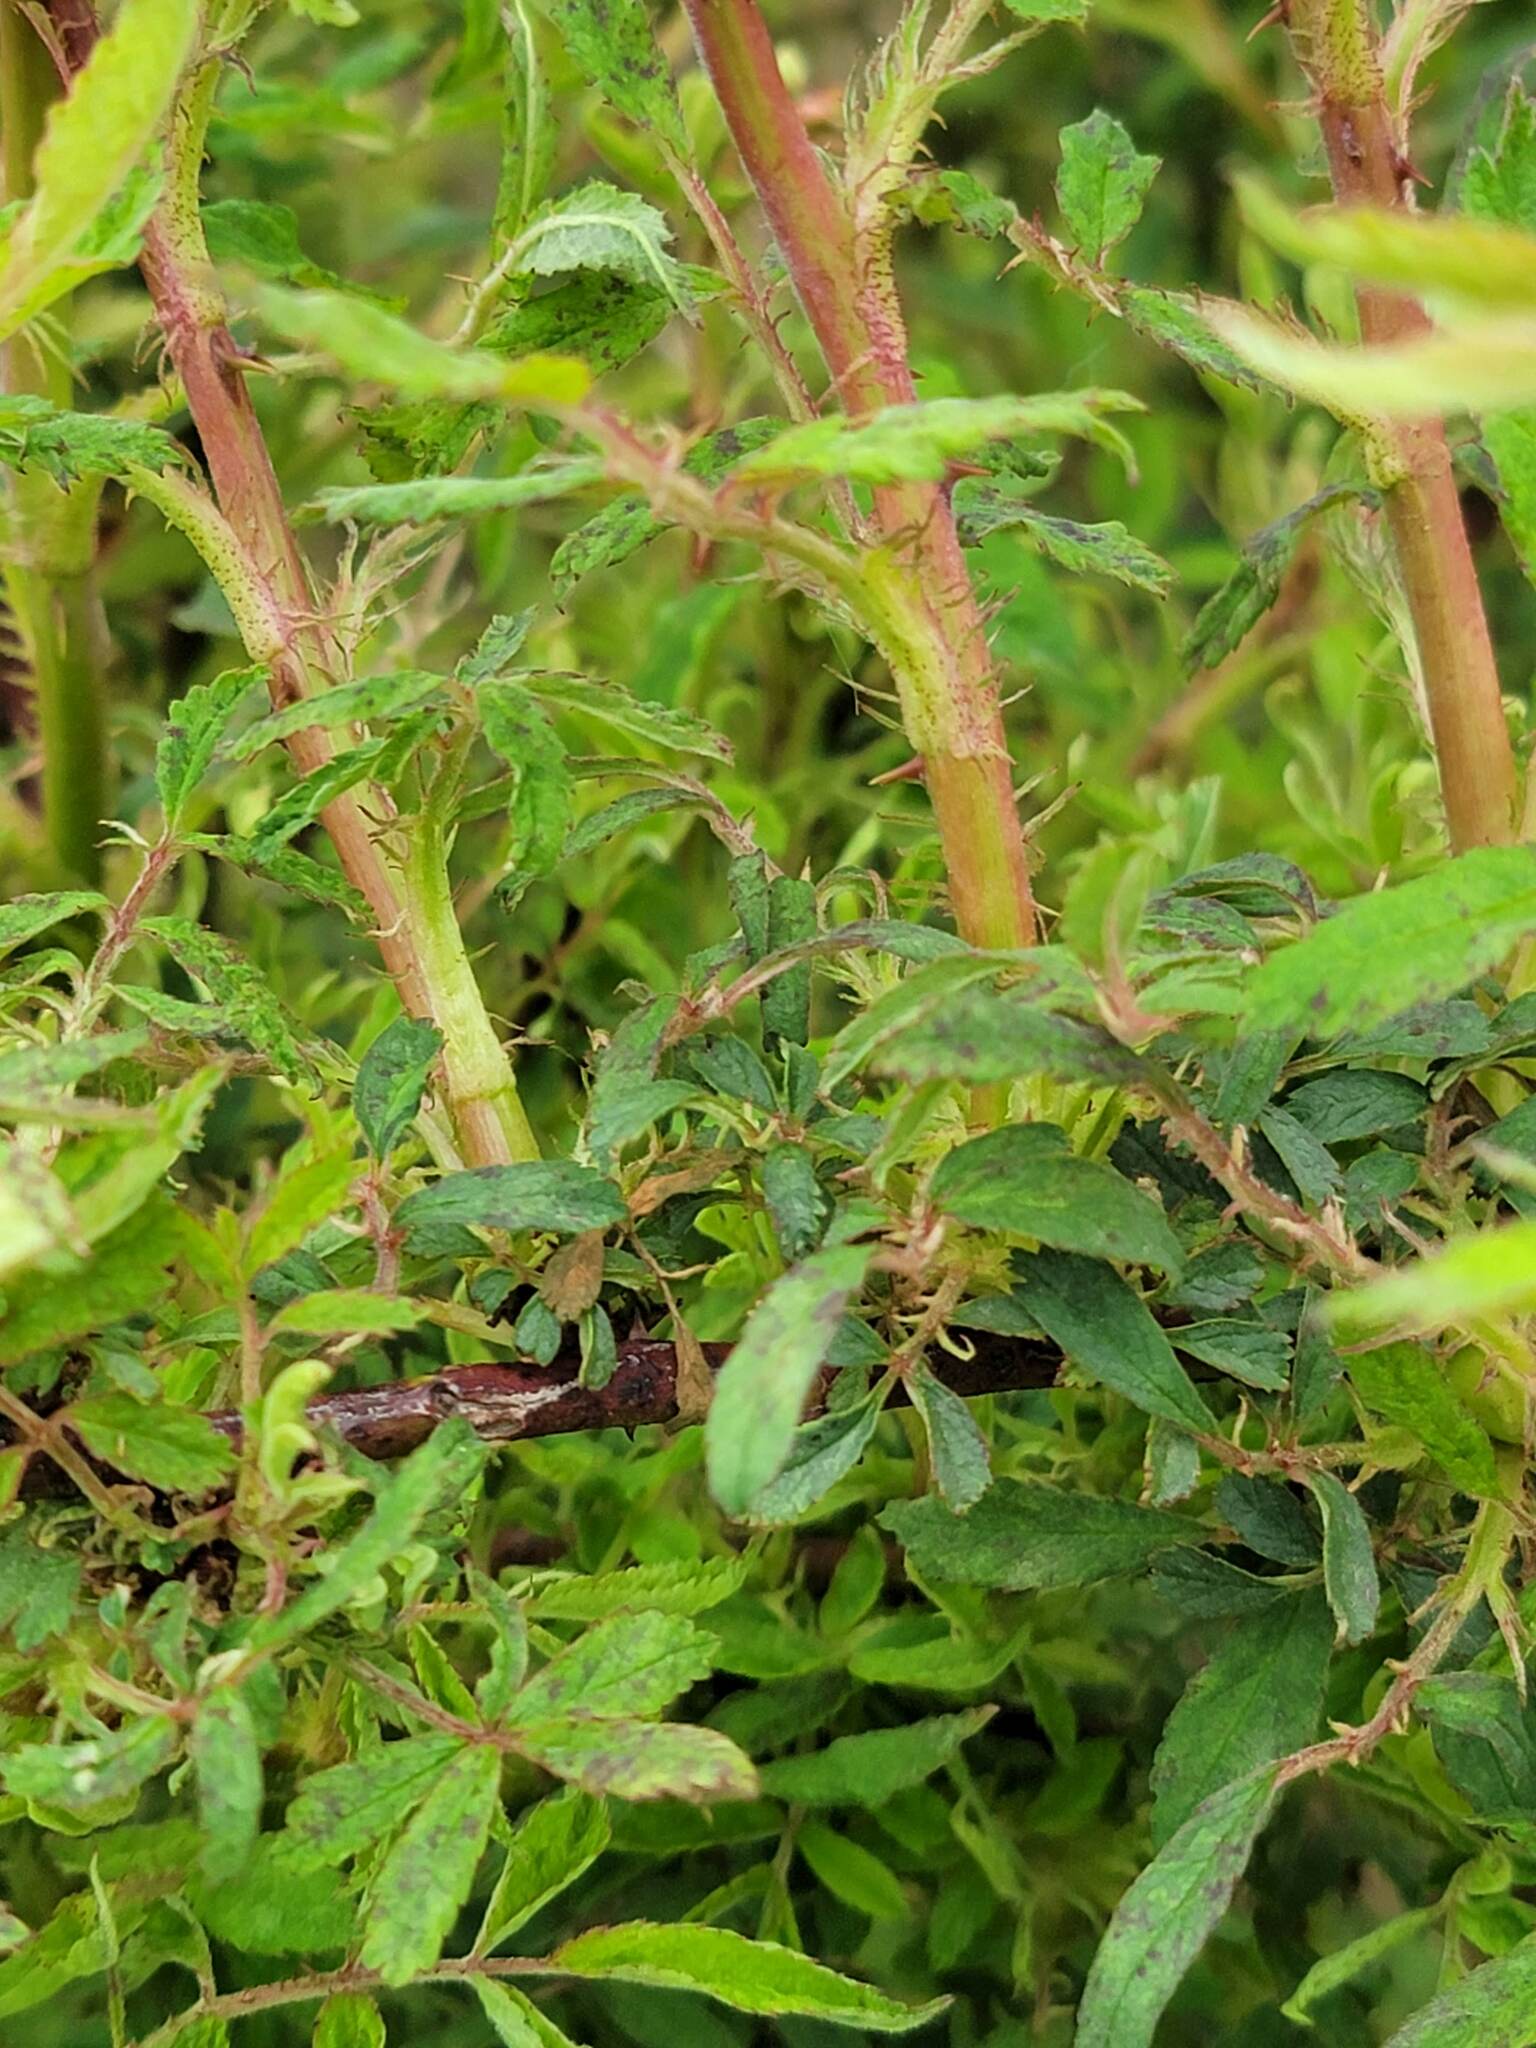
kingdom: Viruses
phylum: Negarnaviricota
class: Ellioviricetes
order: Bunyavirales
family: Fimoviridae
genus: Emaravirus
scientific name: Emaravirus rosae
